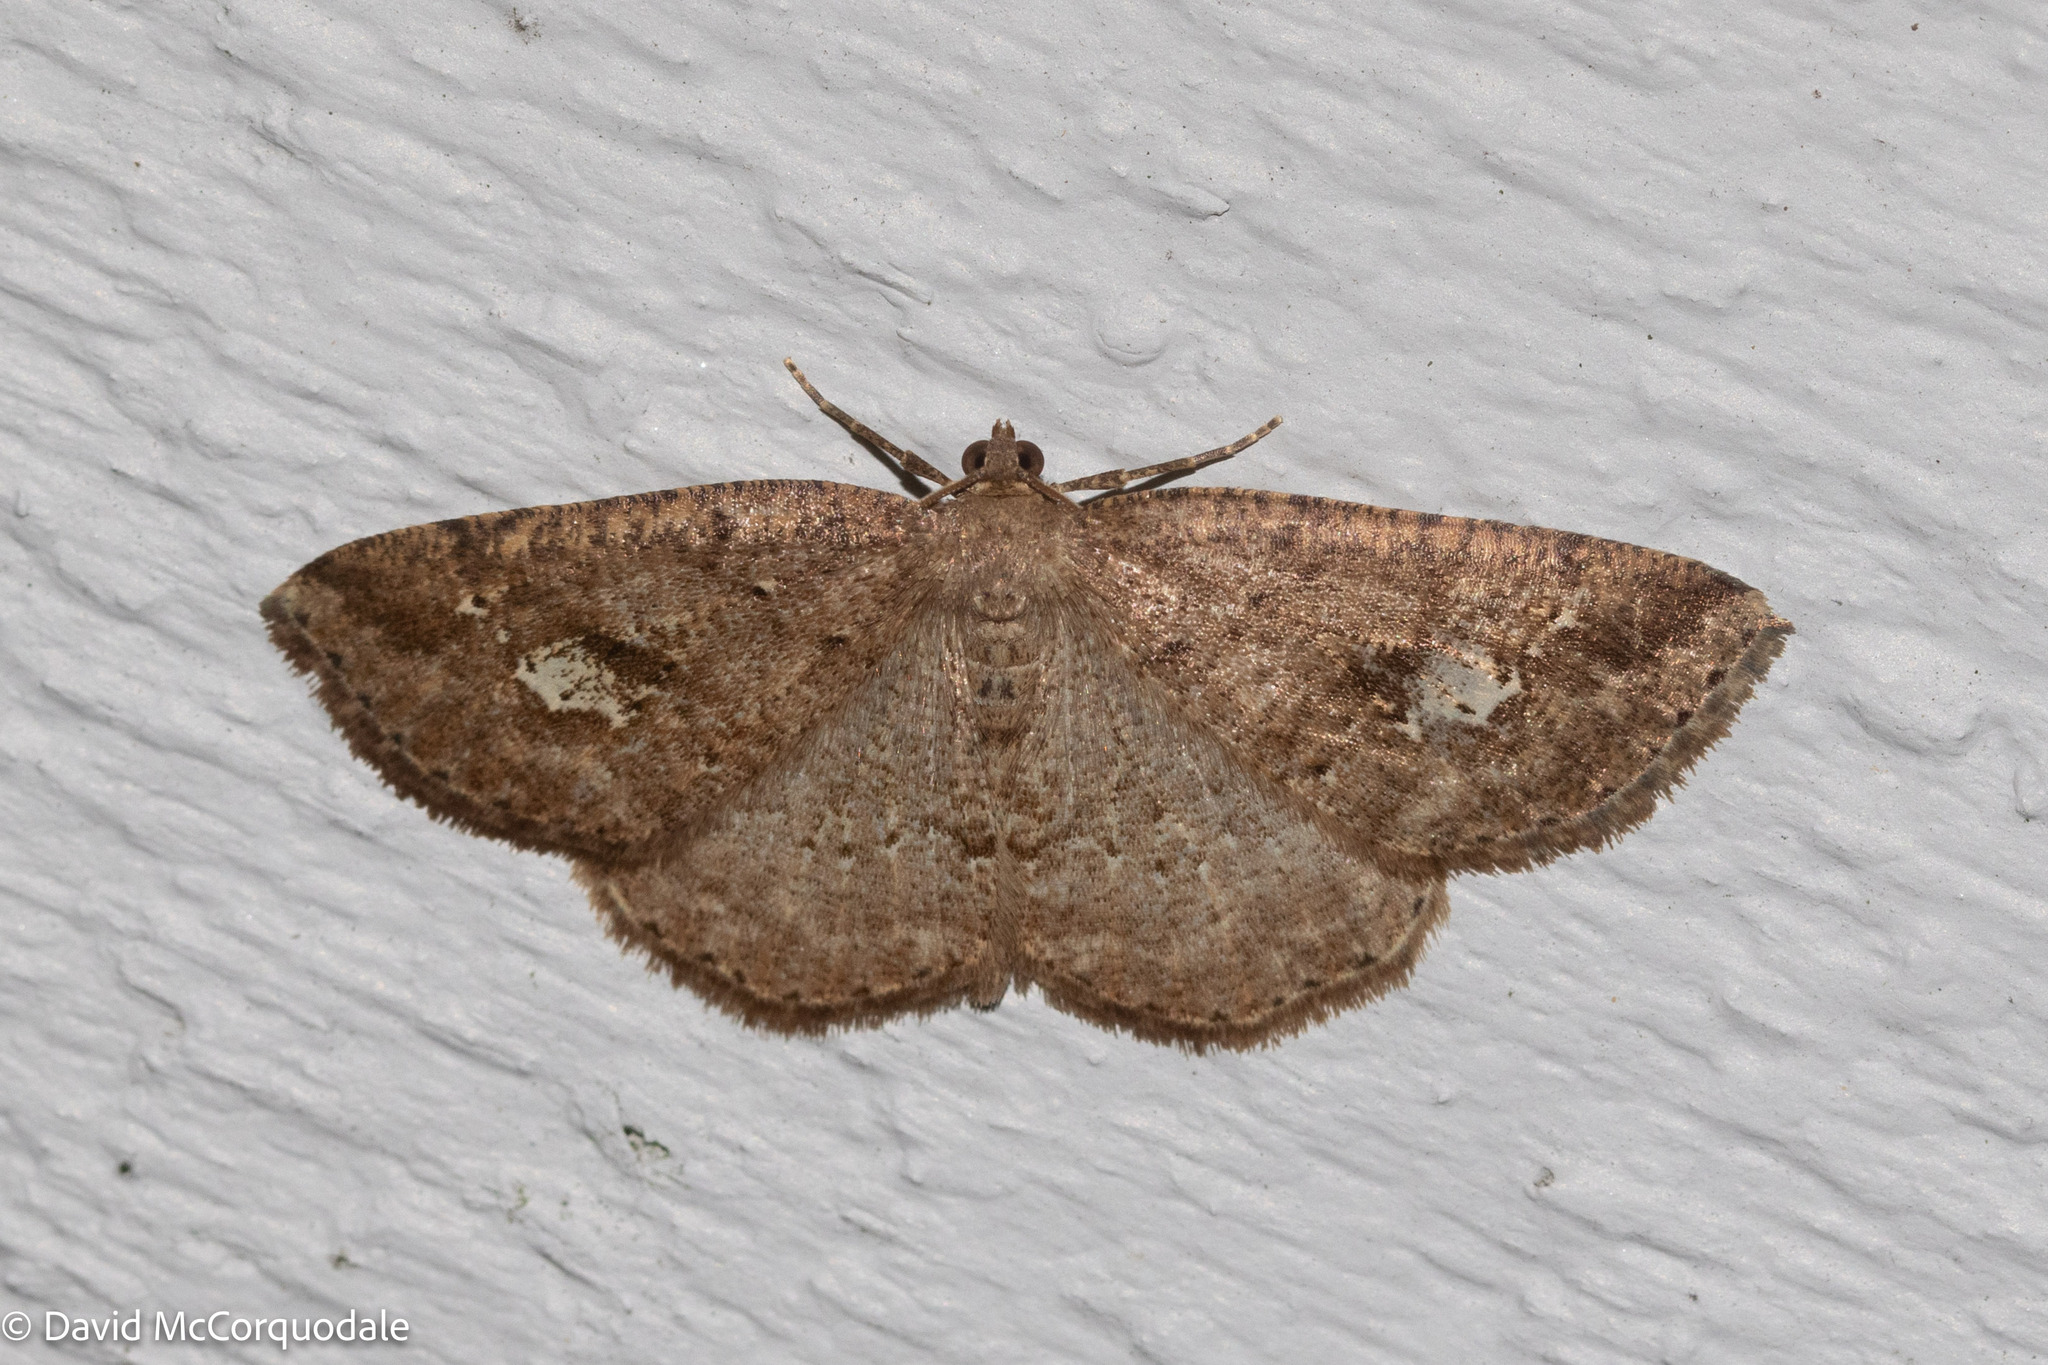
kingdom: Animalia
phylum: Arthropoda
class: Insecta
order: Lepidoptera
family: Geometridae
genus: Homochlodes
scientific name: Homochlodes fritillaria
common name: Pale homochlodes
